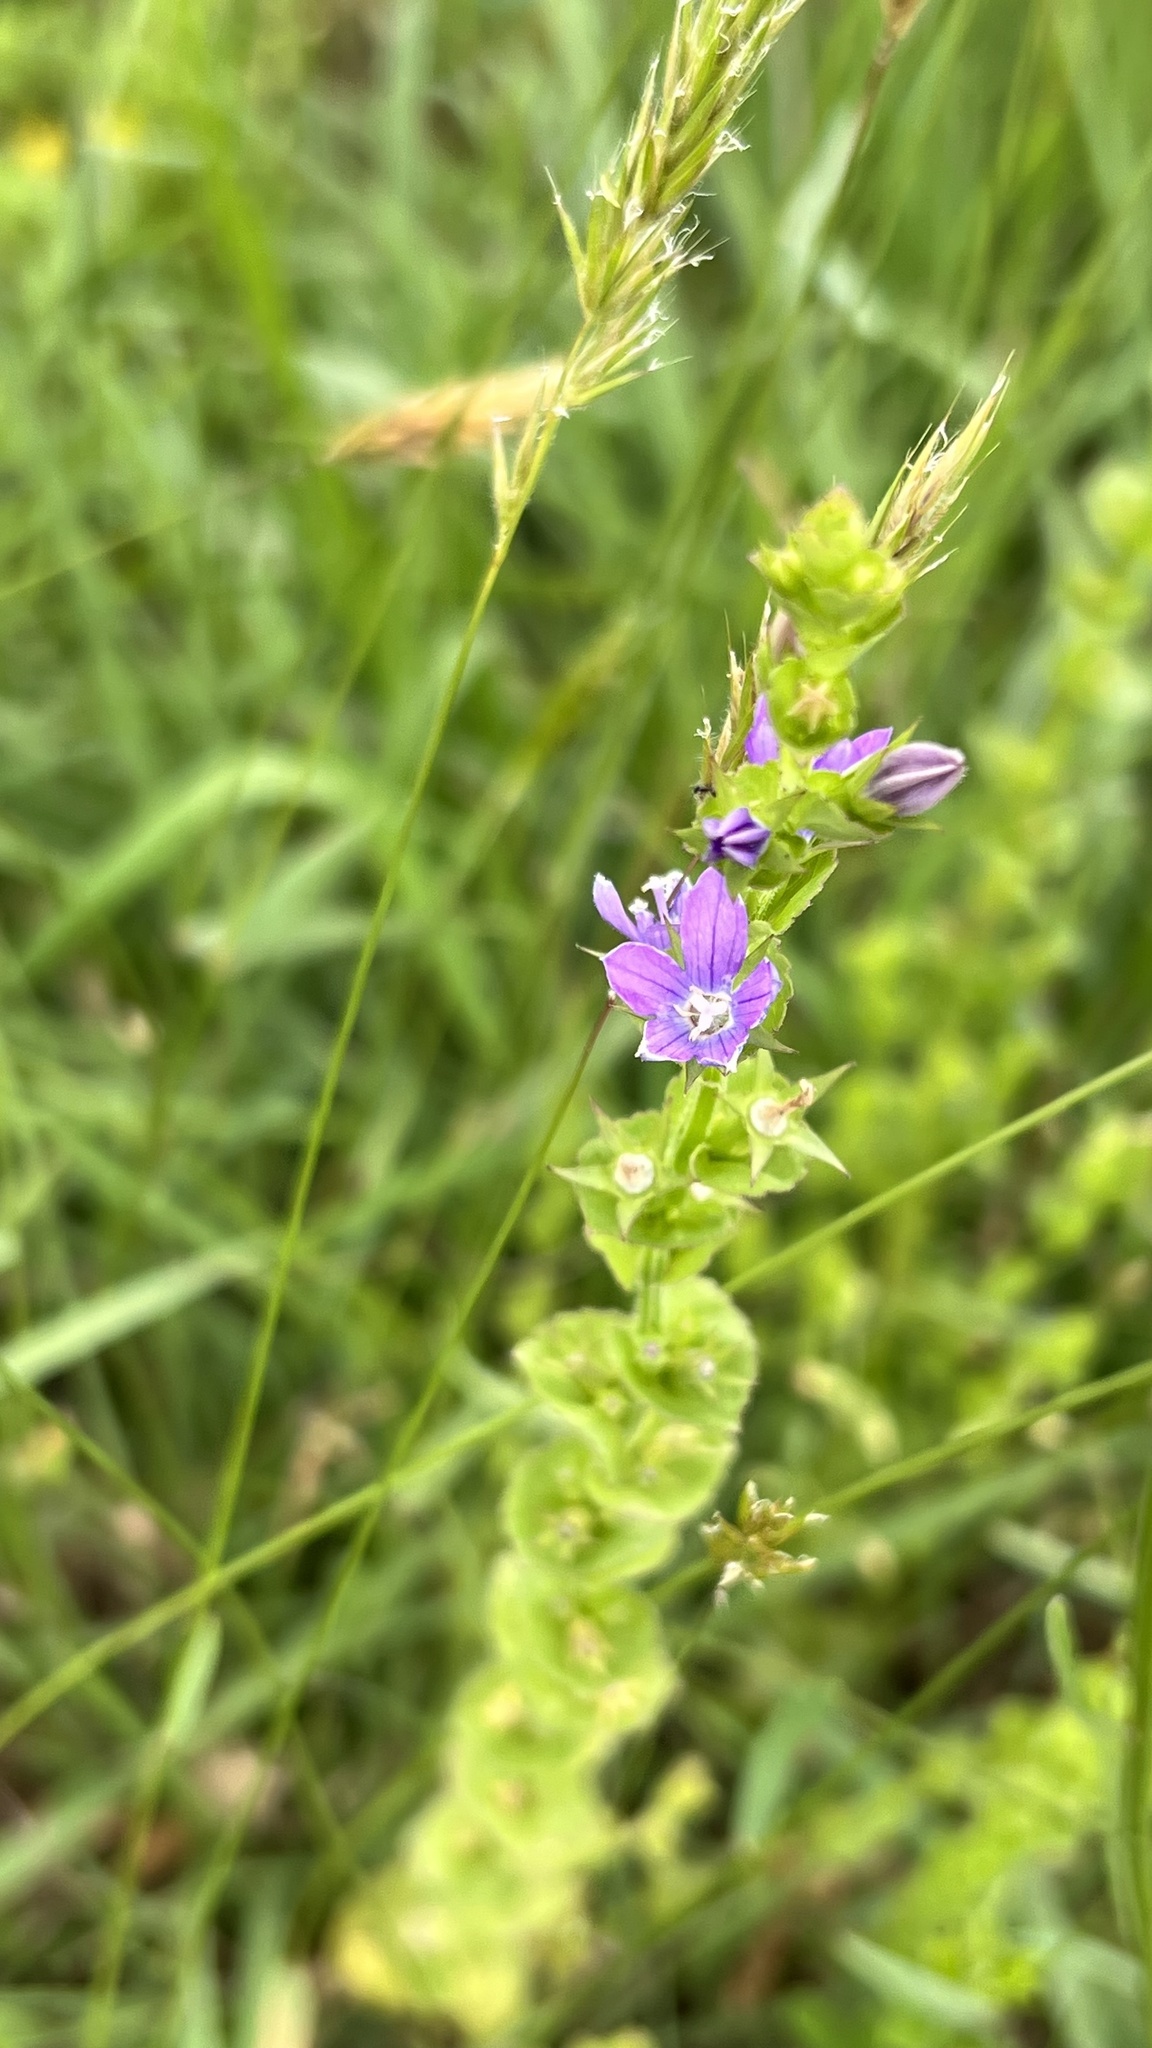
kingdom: Plantae
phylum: Tracheophyta
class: Magnoliopsida
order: Asterales
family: Campanulaceae
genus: Triodanis
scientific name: Triodanis perfoliata
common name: Clasping venus' looking-glass
